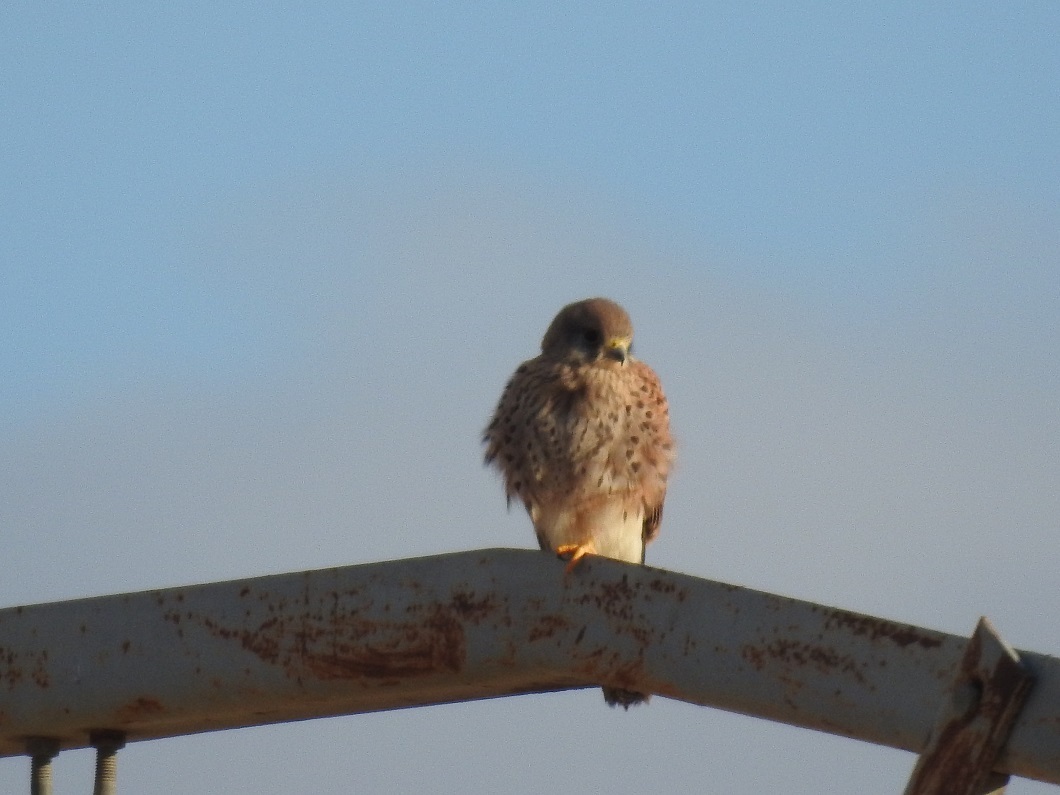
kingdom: Animalia
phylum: Chordata
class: Aves
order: Falconiformes
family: Falconidae
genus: Falco
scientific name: Falco tinnunculus
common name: Common kestrel
